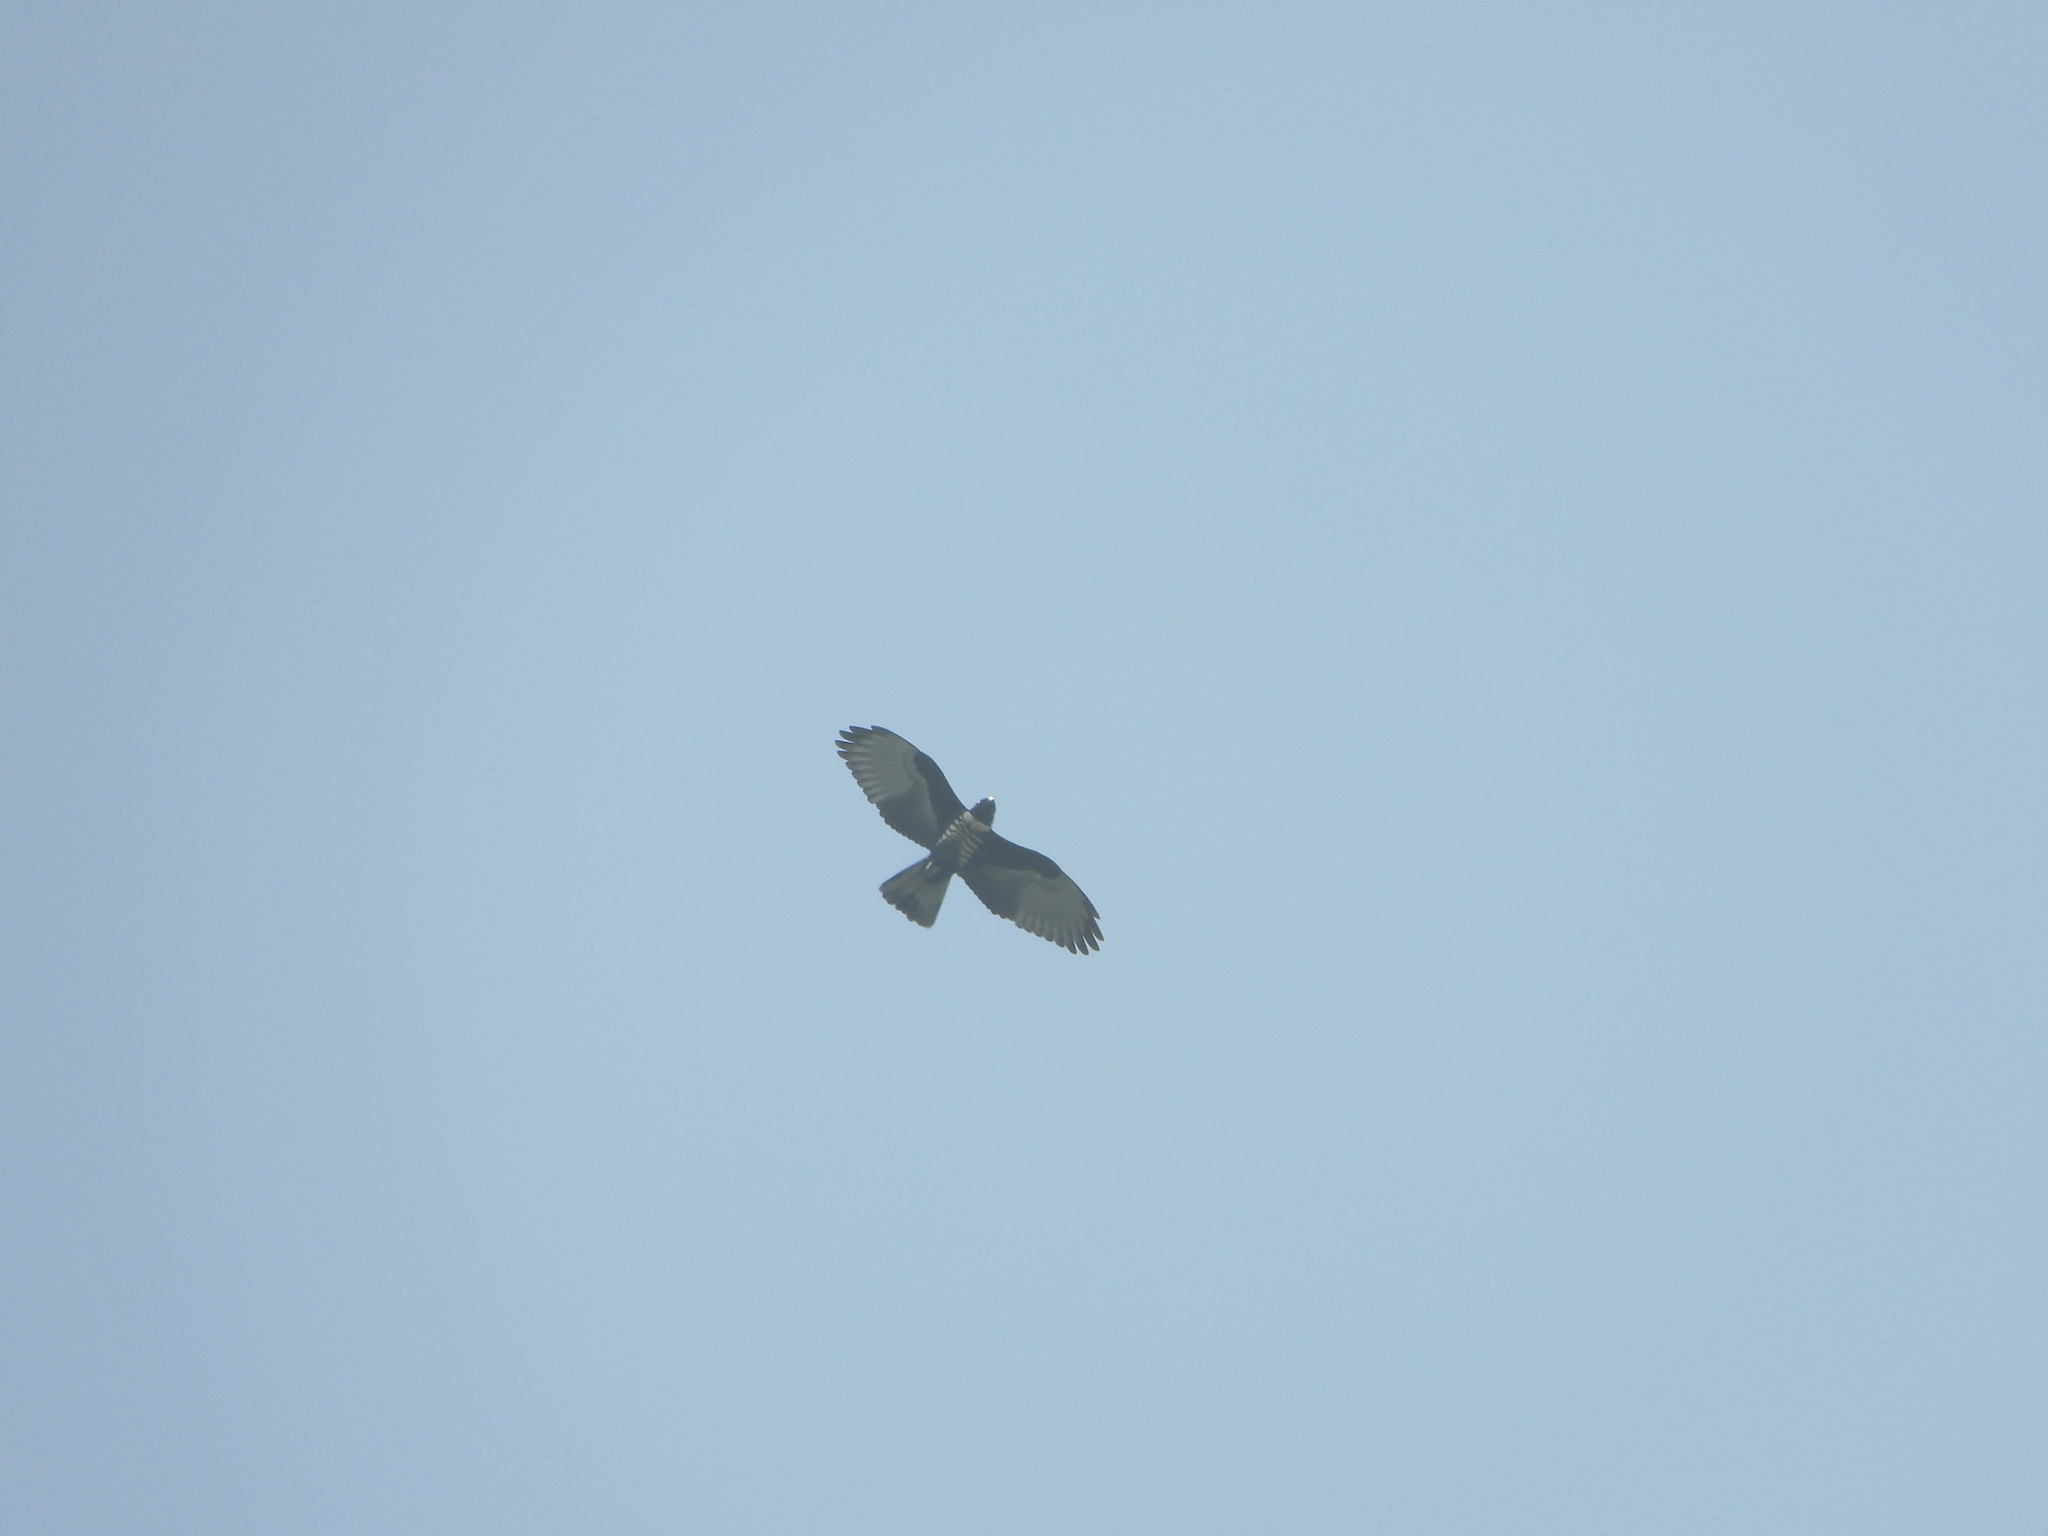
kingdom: Animalia
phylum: Chordata
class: Aves
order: Accipitriformes
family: Accipitridae
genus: Aviceda
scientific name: Aviceda leuphotes
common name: Black baza
